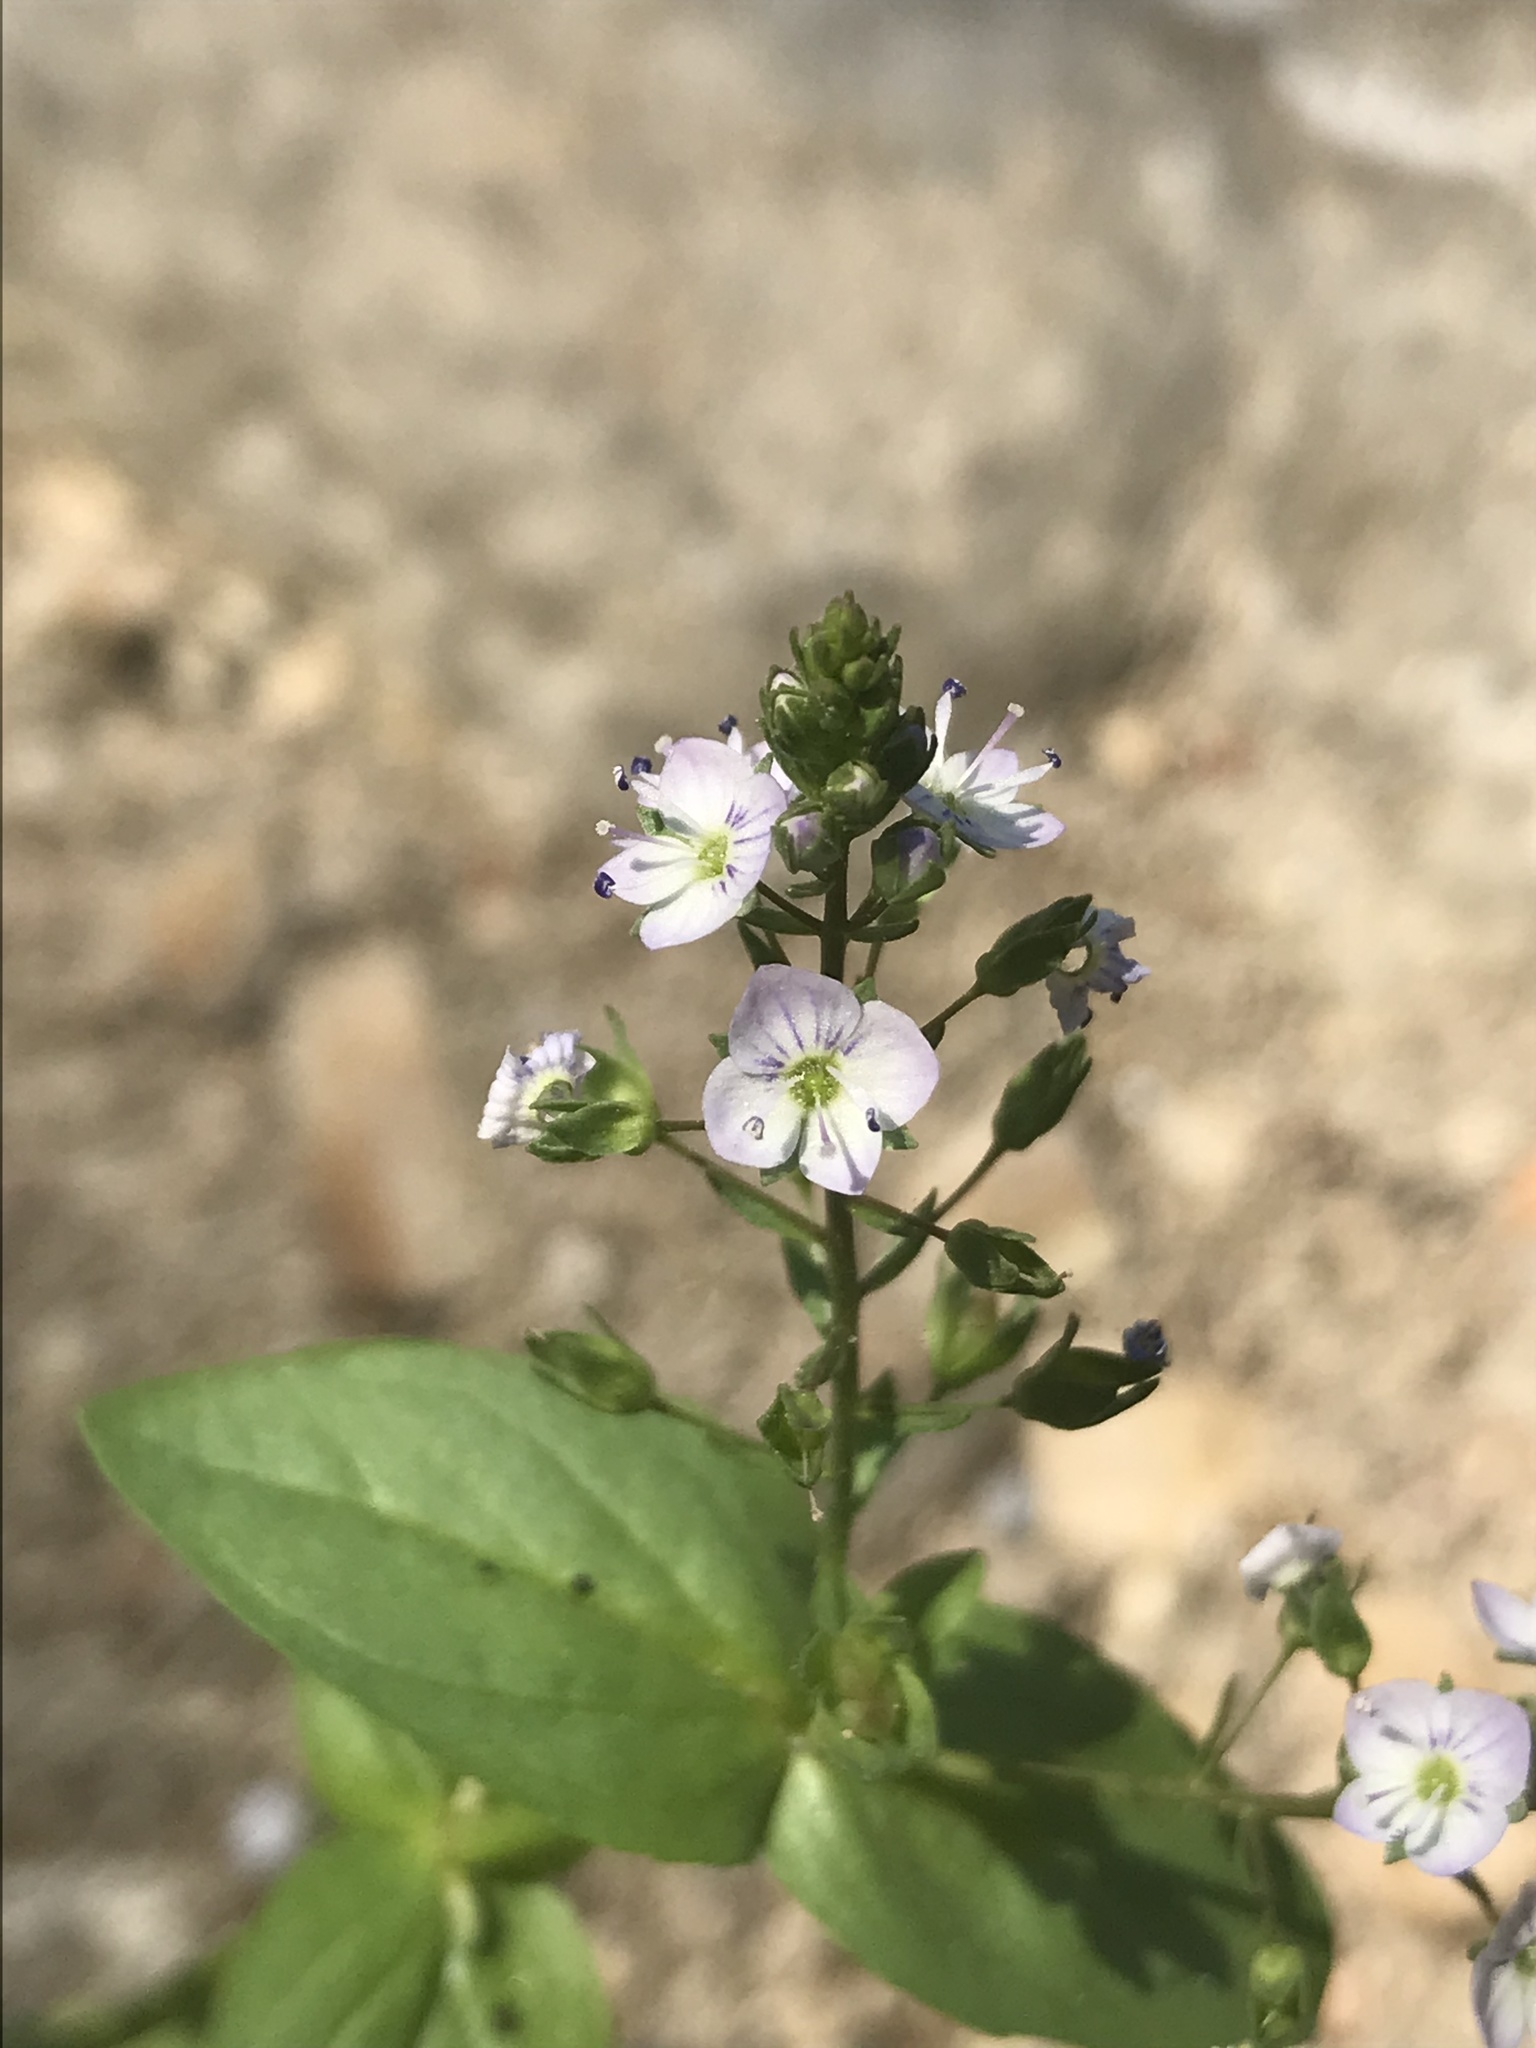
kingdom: Plantae
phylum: Tracheophyta
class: Magnoliopsida
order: Lamiales
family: Plantaginaceae
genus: Veronica
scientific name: Veronica anagallis-aquatica
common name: Water speedwell
